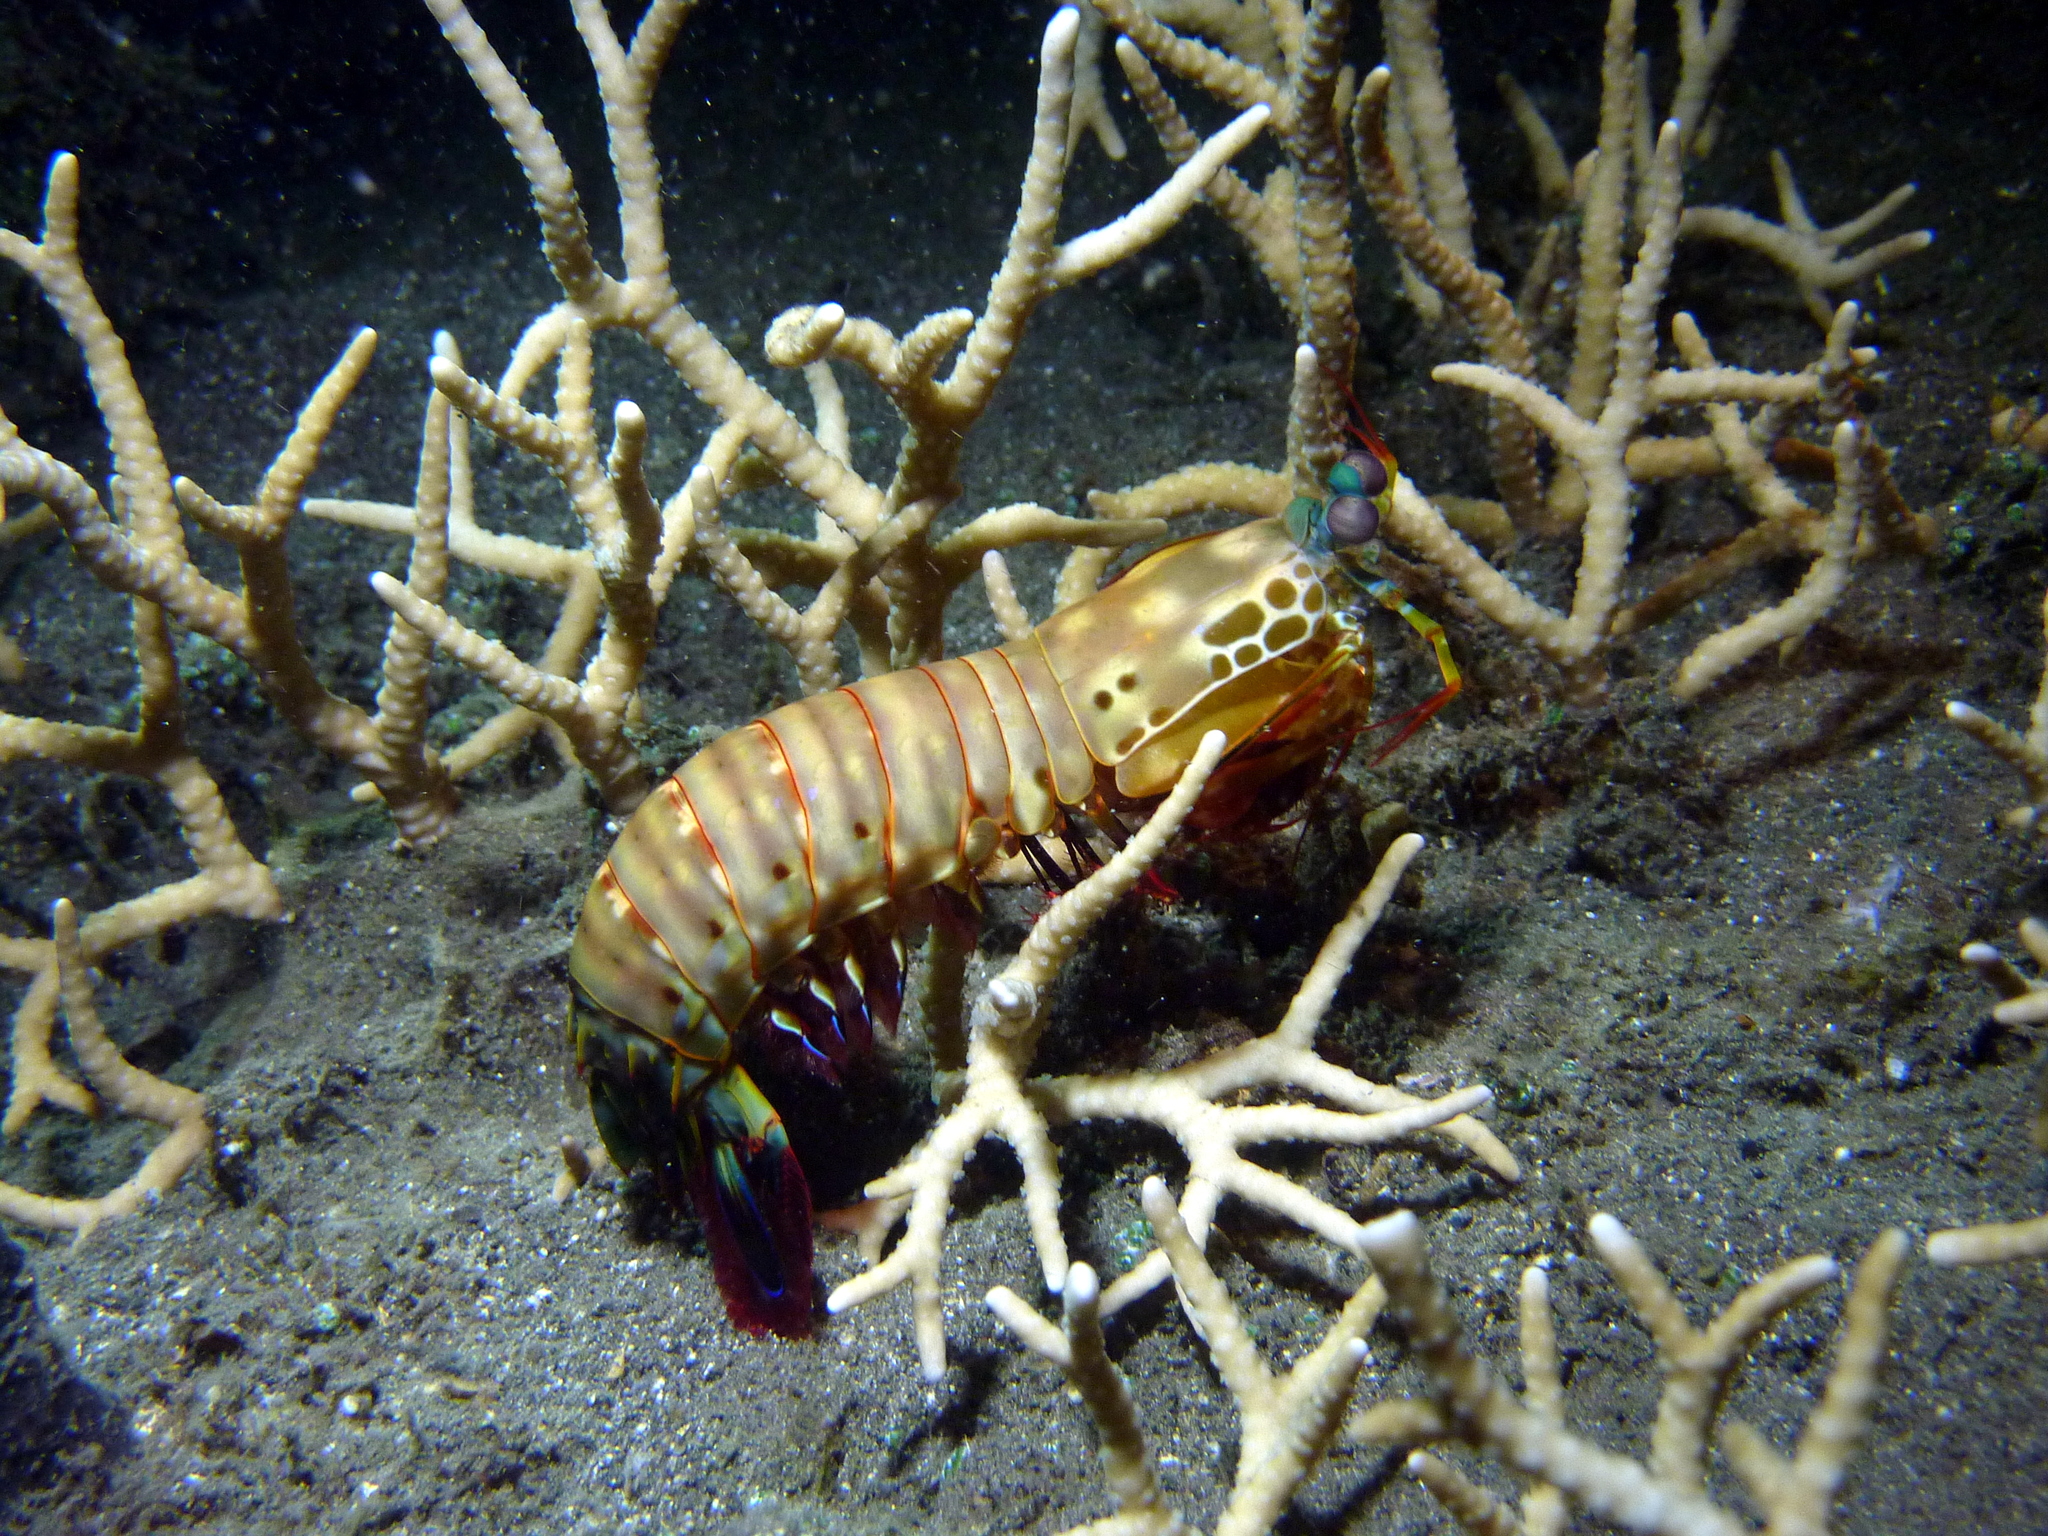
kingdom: Animalia
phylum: Arthropoda
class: Malacostraca
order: Stomatopoda
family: Odontodactylidae
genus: Odontodactylus
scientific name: Odontodactylus scyllarus
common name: Peacock mantis shrimp
